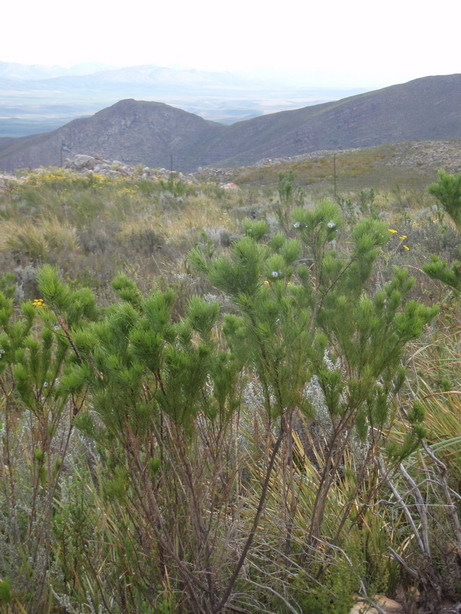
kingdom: Plantae
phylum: Tracheophyta
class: Magnoliopsida
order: Fabales
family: Fabaceae
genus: Psoralea
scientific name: Psoralea kougaensis
